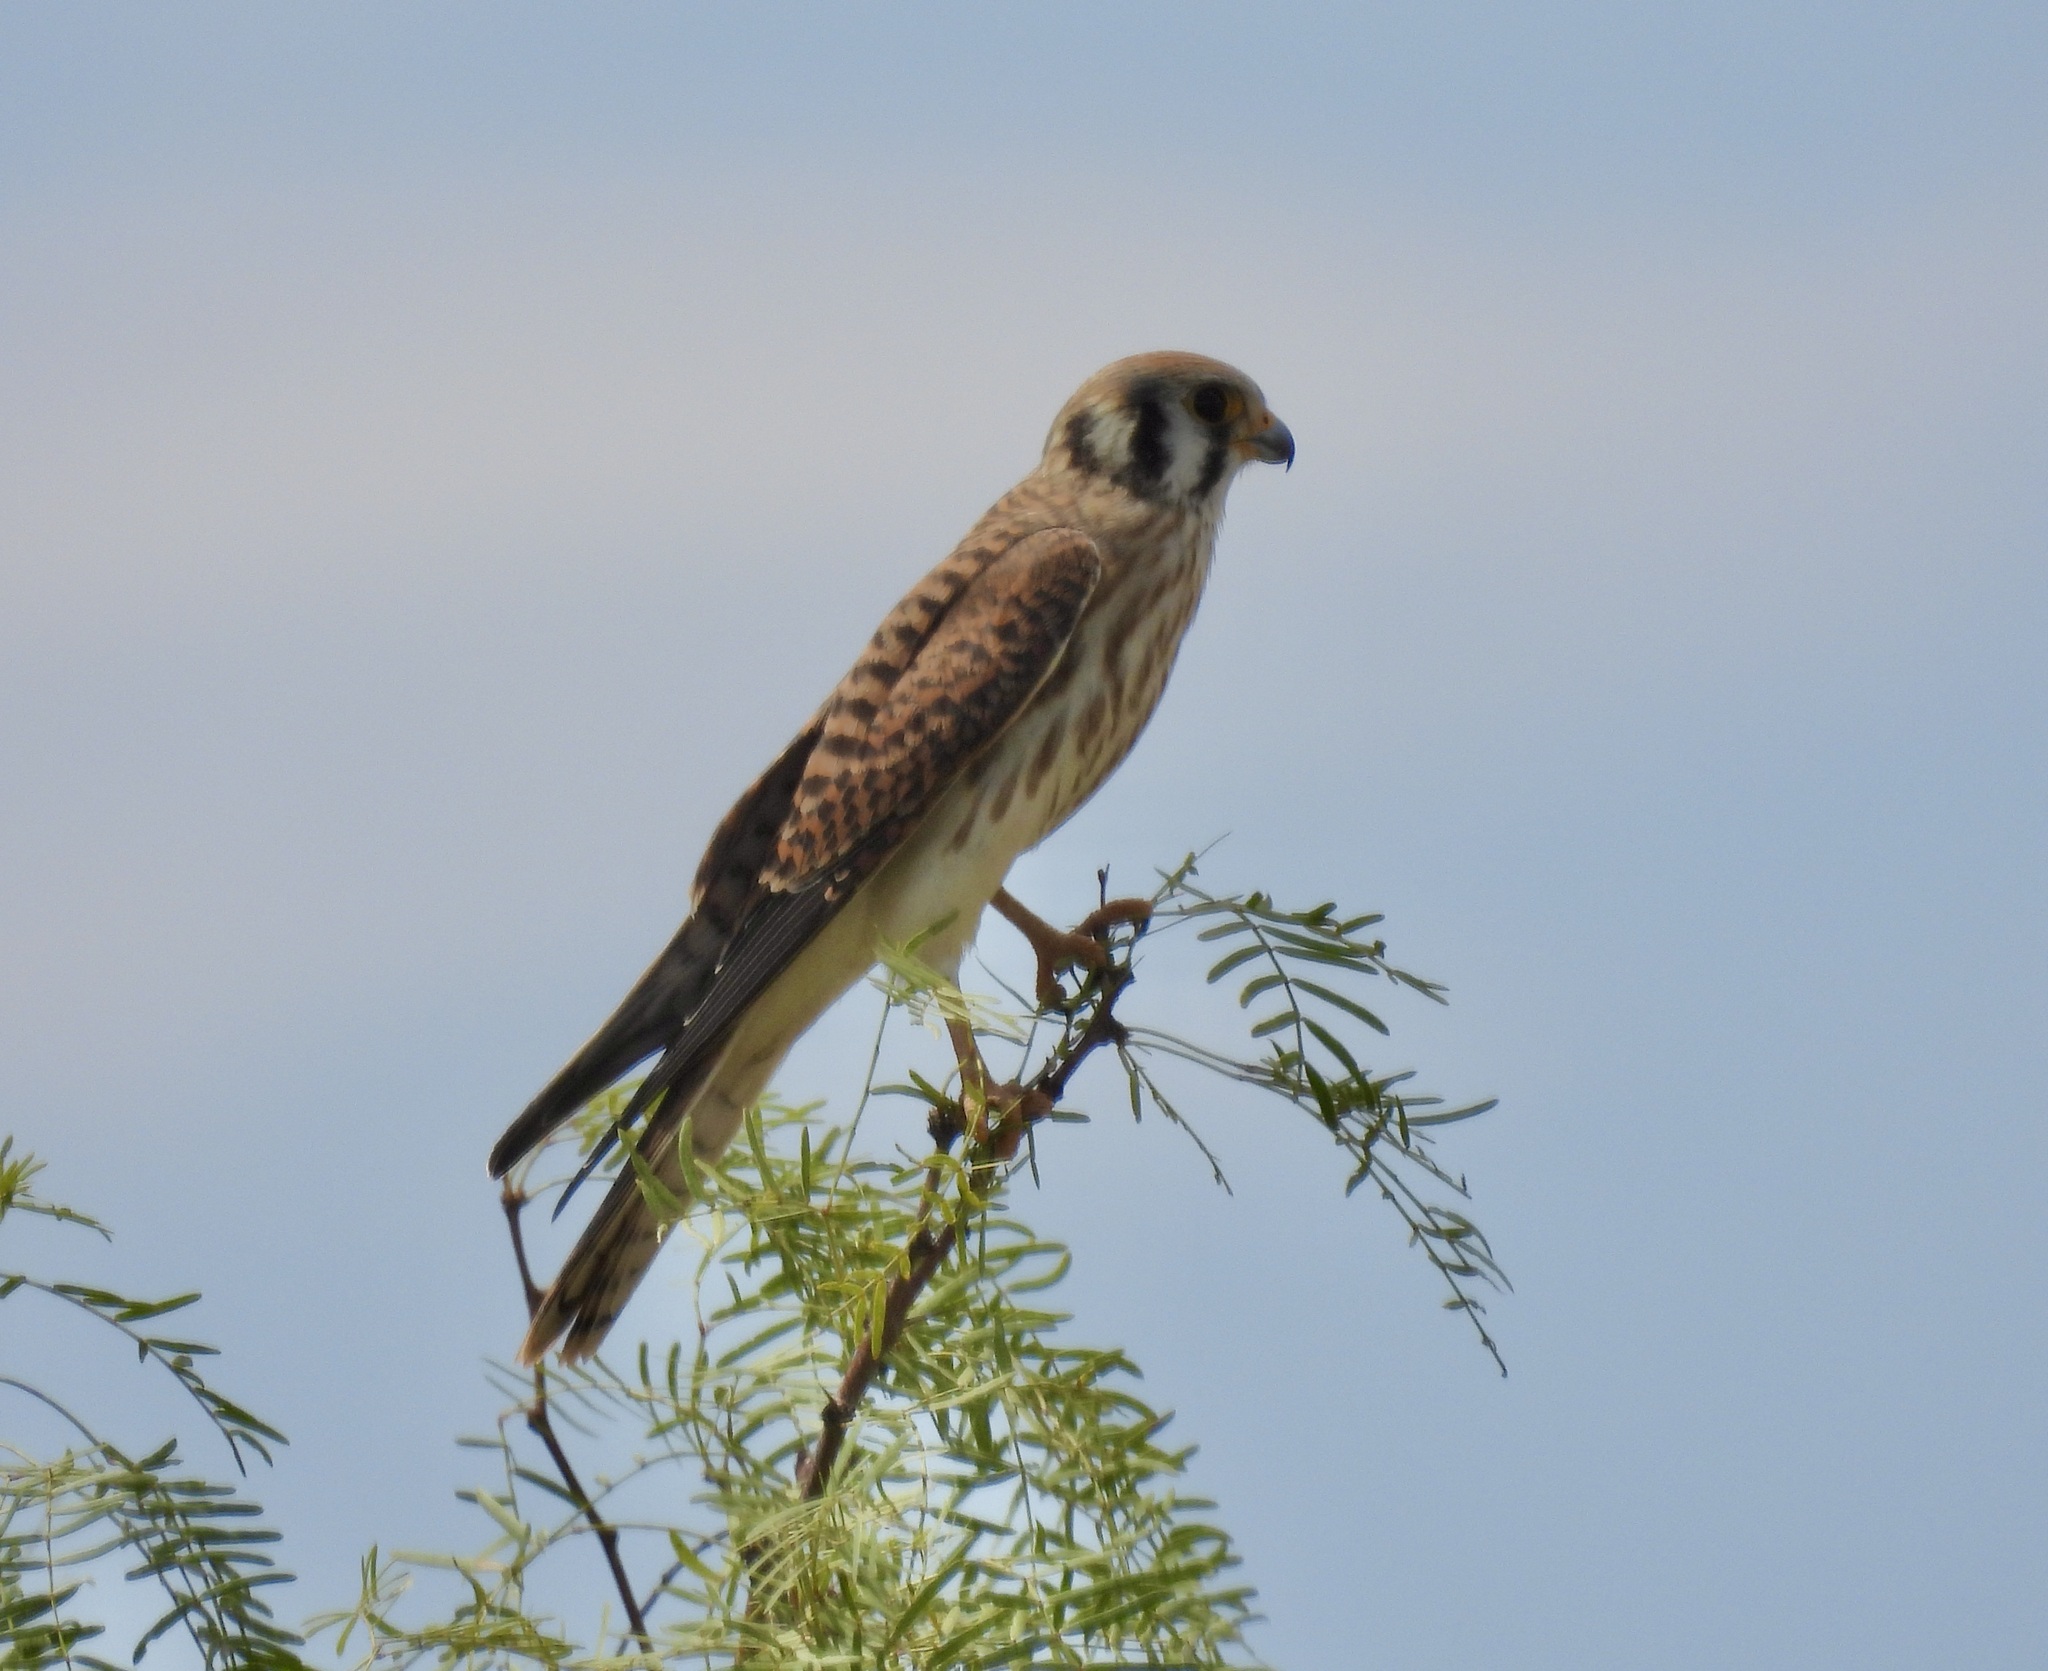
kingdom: Animalia
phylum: Chordata
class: Aves
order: Falconiformes
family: Falconidae
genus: Falco
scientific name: Falco sparverius
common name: American kestrel
